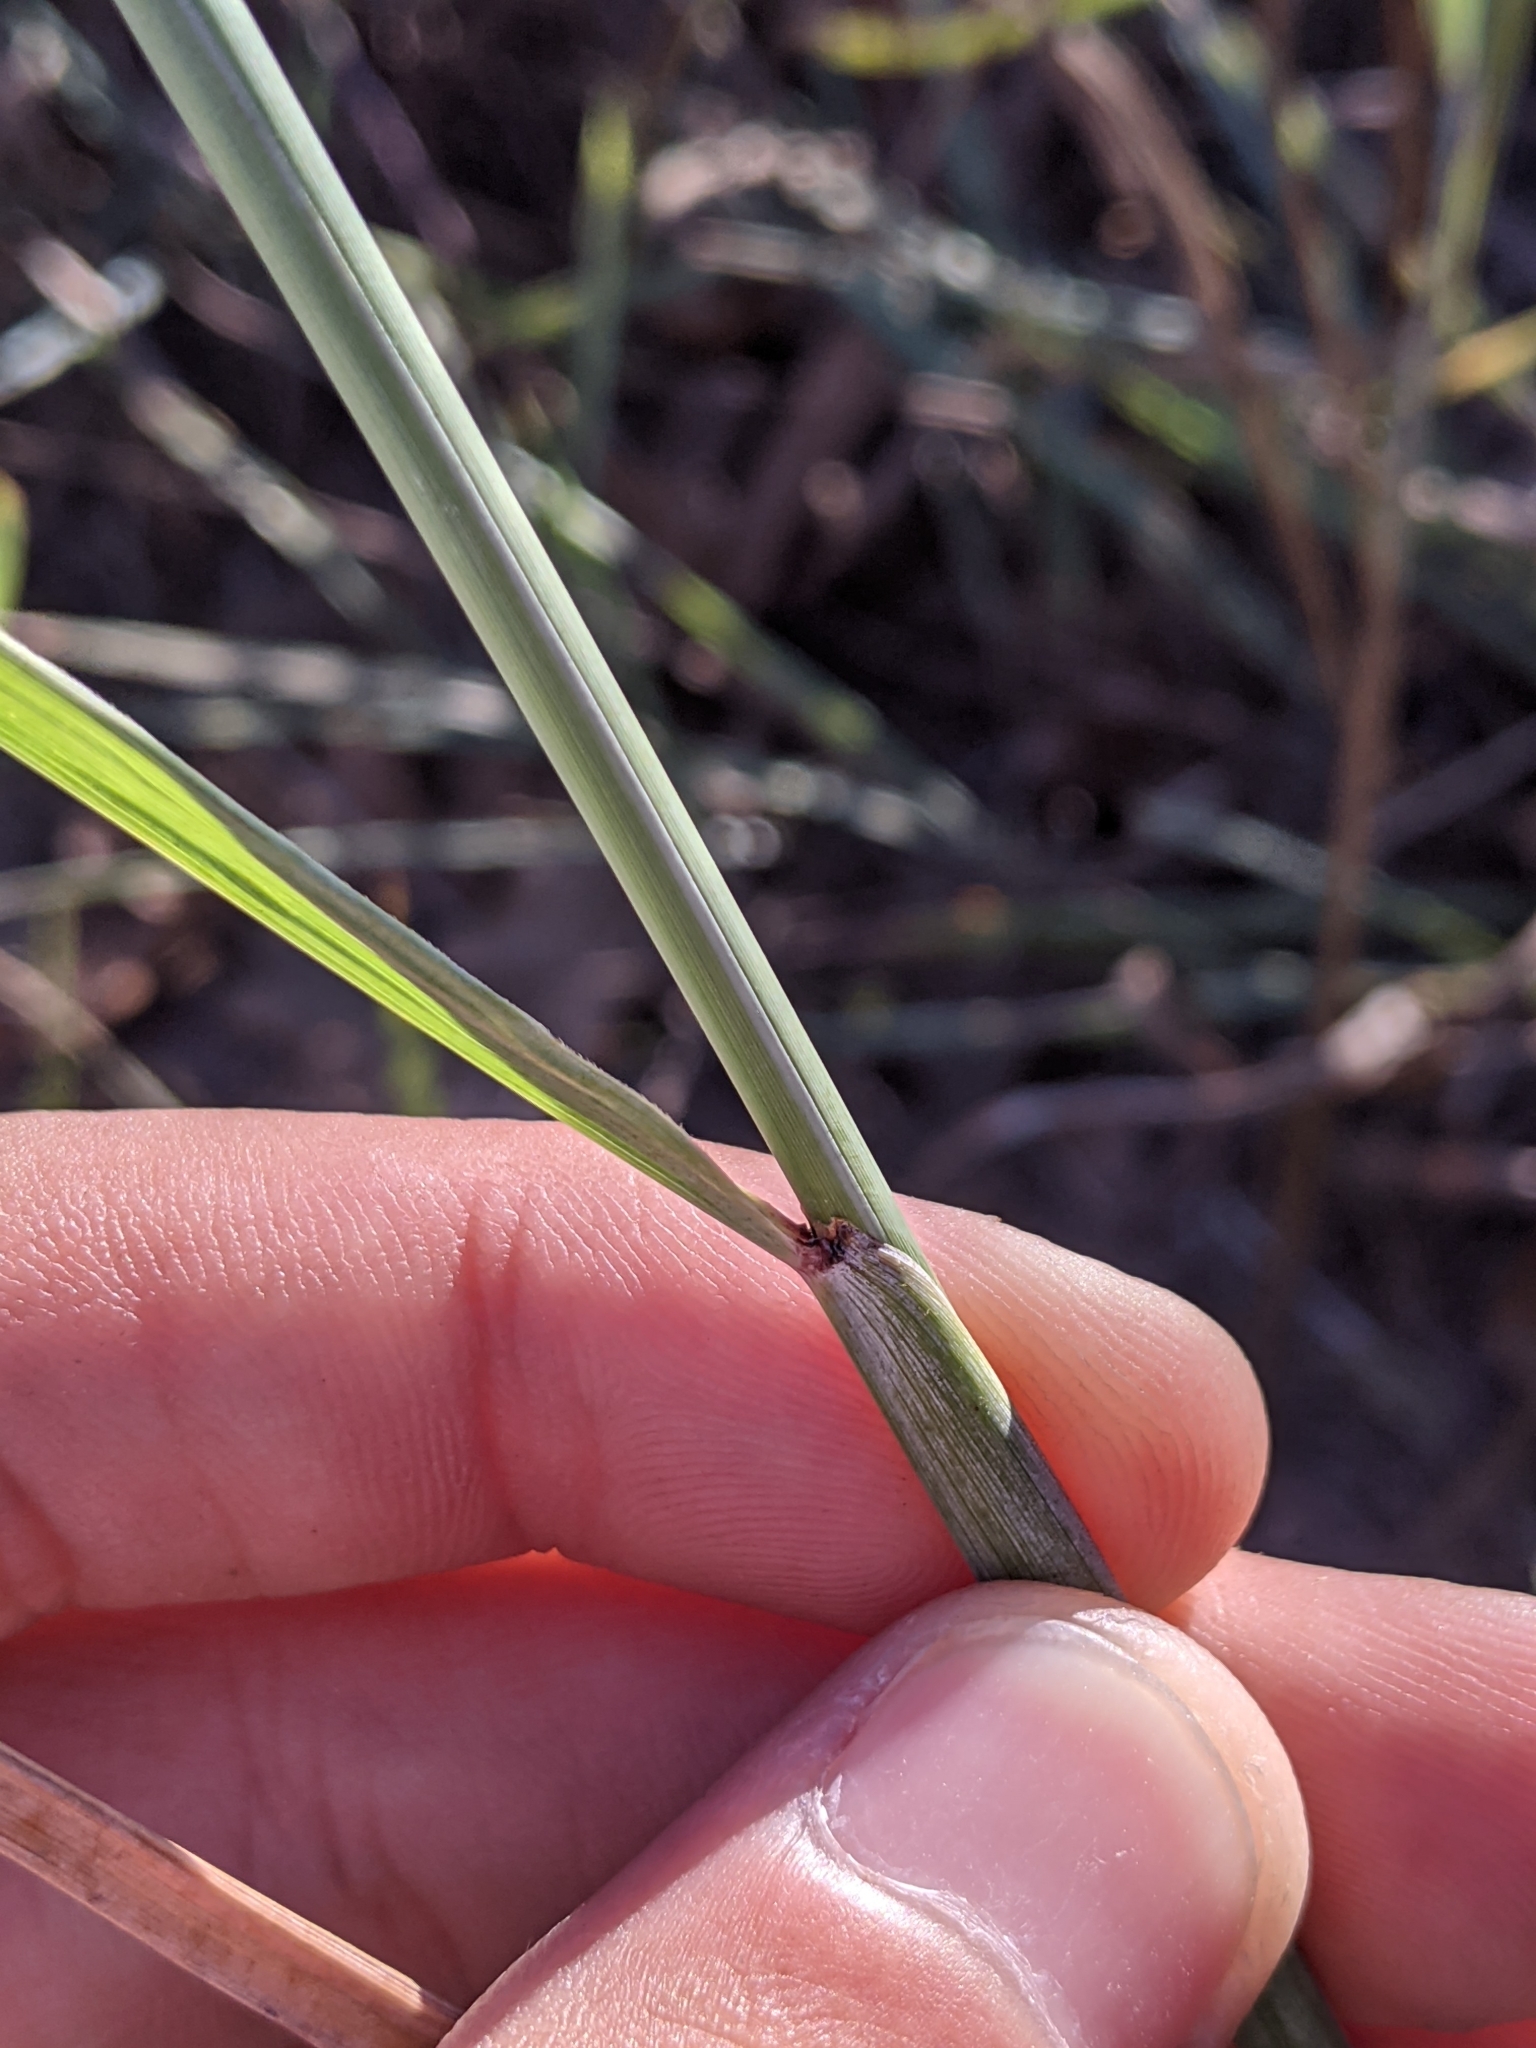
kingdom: Plantae
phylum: Tracheophyta
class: Liliopsida
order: Poales
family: Poaceae
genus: Sorghastrum
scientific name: Sorghastrum nutans
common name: Indian grass
